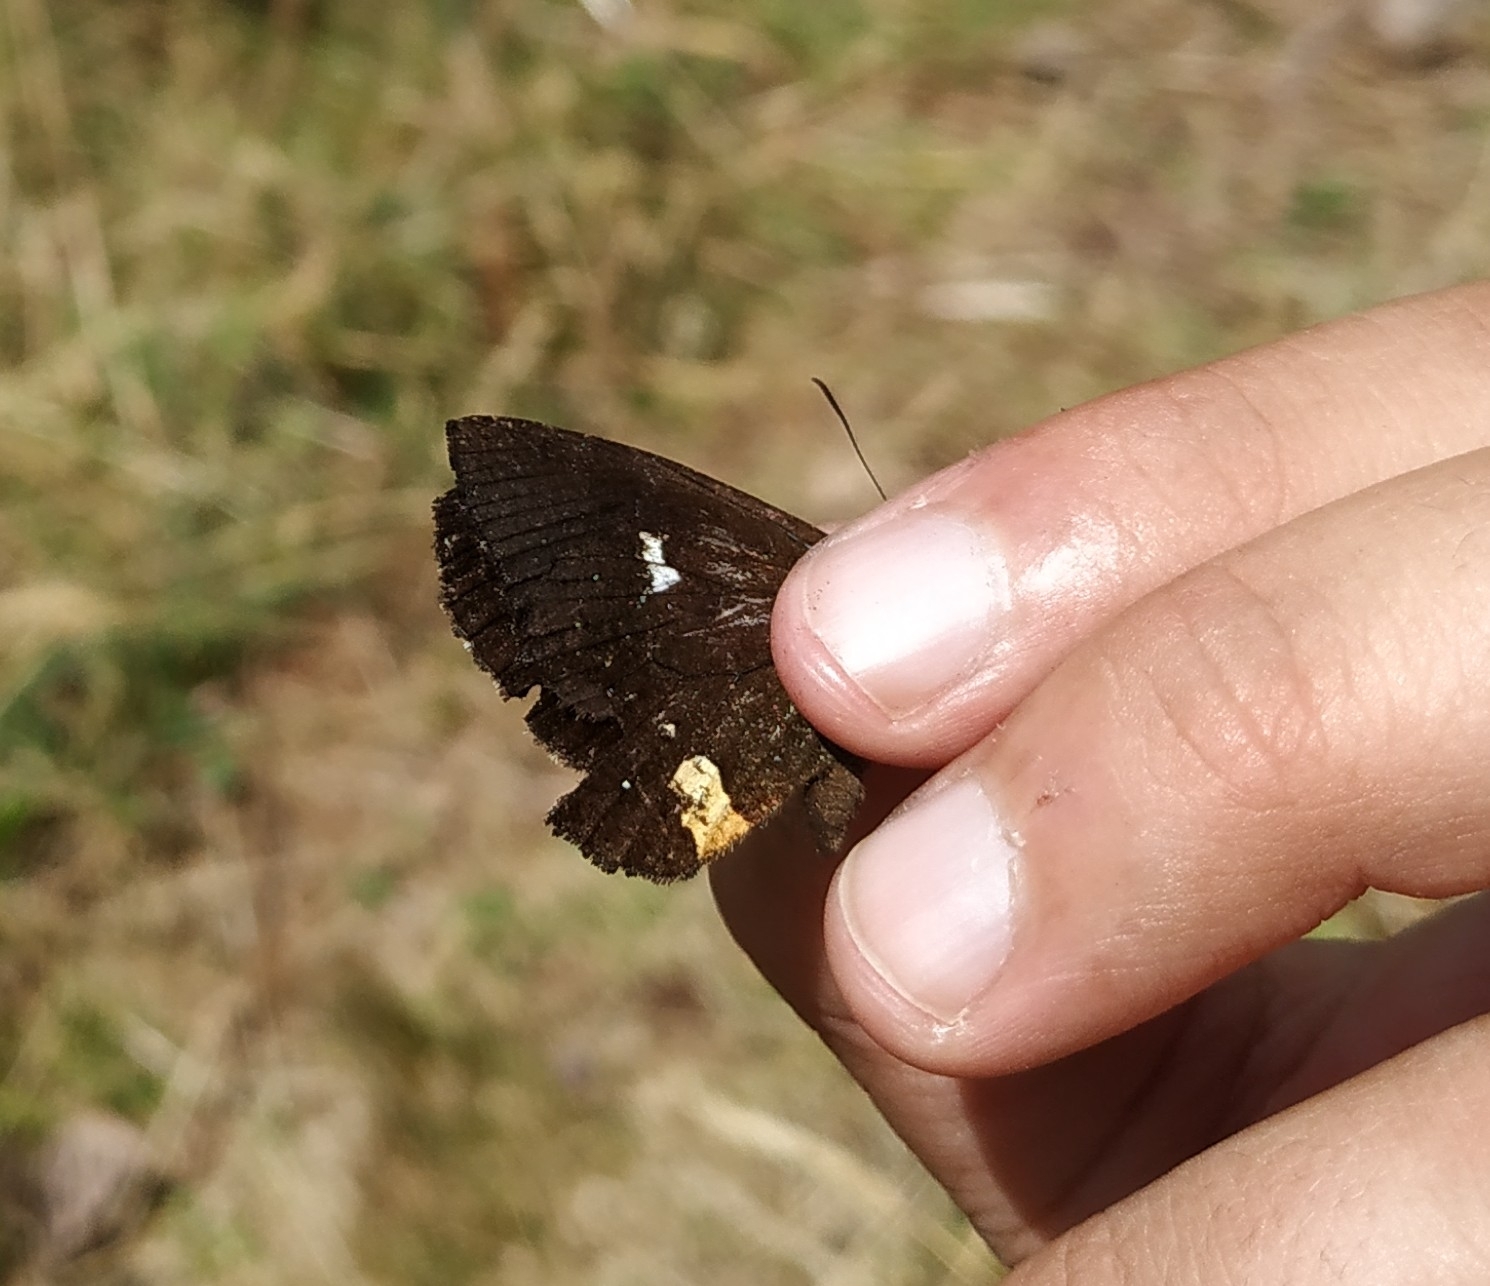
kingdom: Animalia
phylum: Arthropoda
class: Insecta
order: Lepidoptera
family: Nymphalidae
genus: Pedaliodes
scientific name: Pedaliodes
